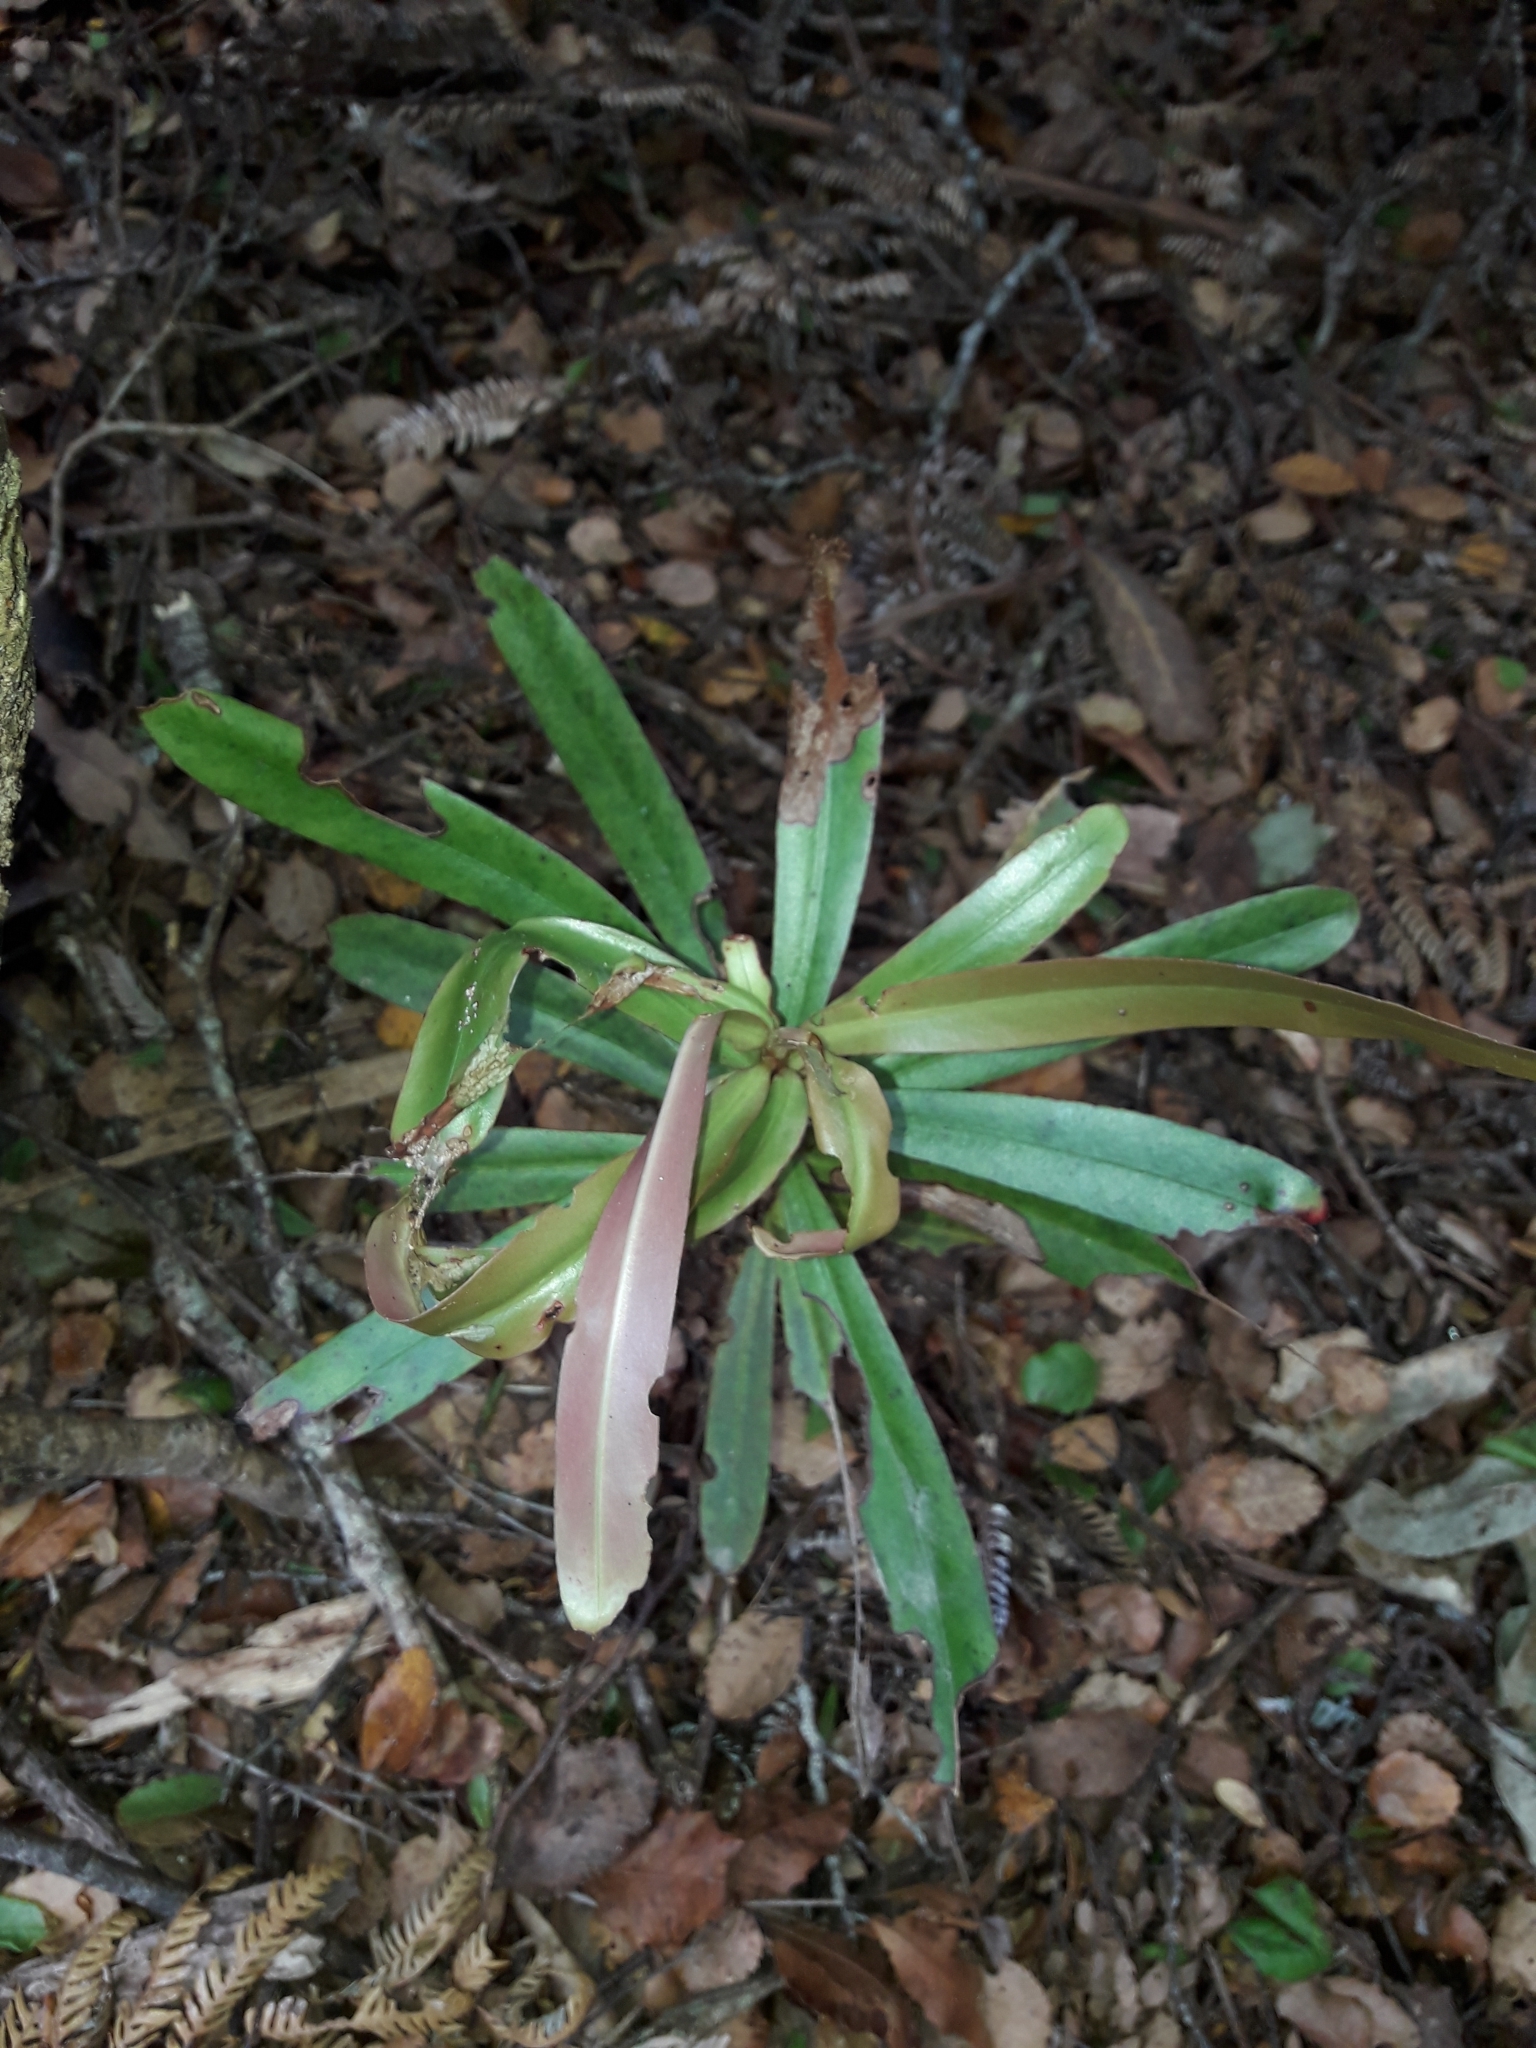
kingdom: Plantae
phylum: Tracheophyta
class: Magnoliopsida
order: Ericales
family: Primulaceae
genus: Myrsine
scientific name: Myrsine salicina
